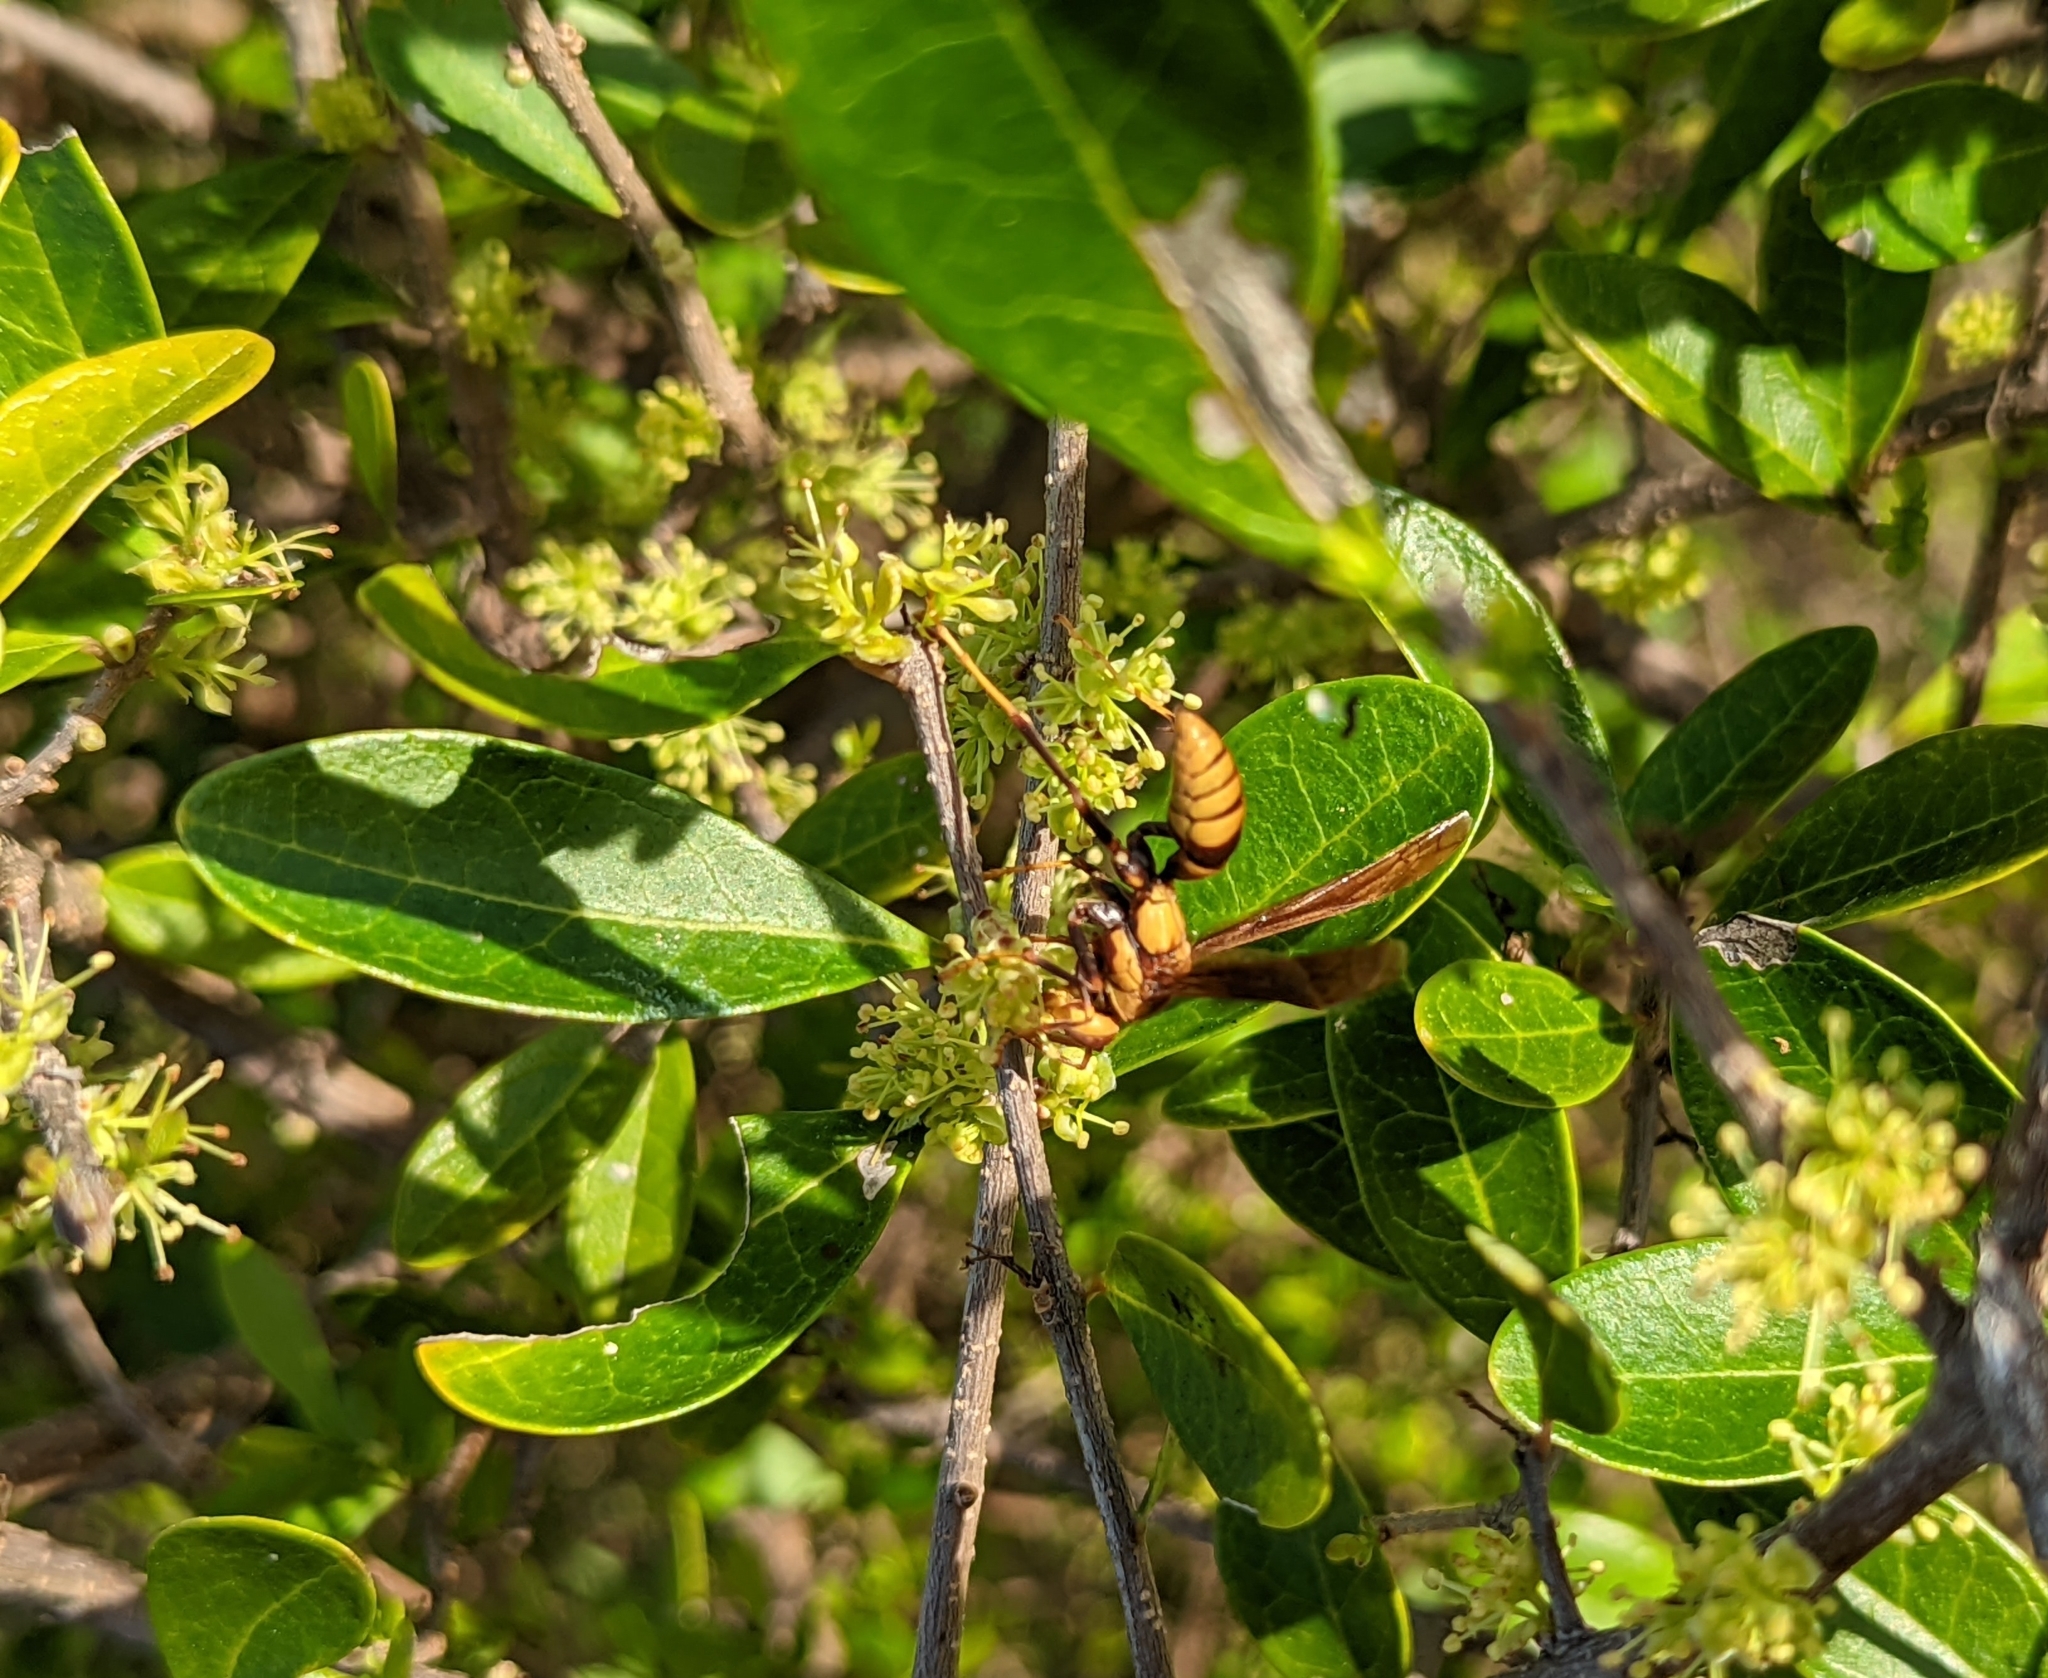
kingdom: Animalia
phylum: Arthropoda
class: Insecta
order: Hymenoptera
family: Eumenidae
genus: Polistes
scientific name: Polistes major
